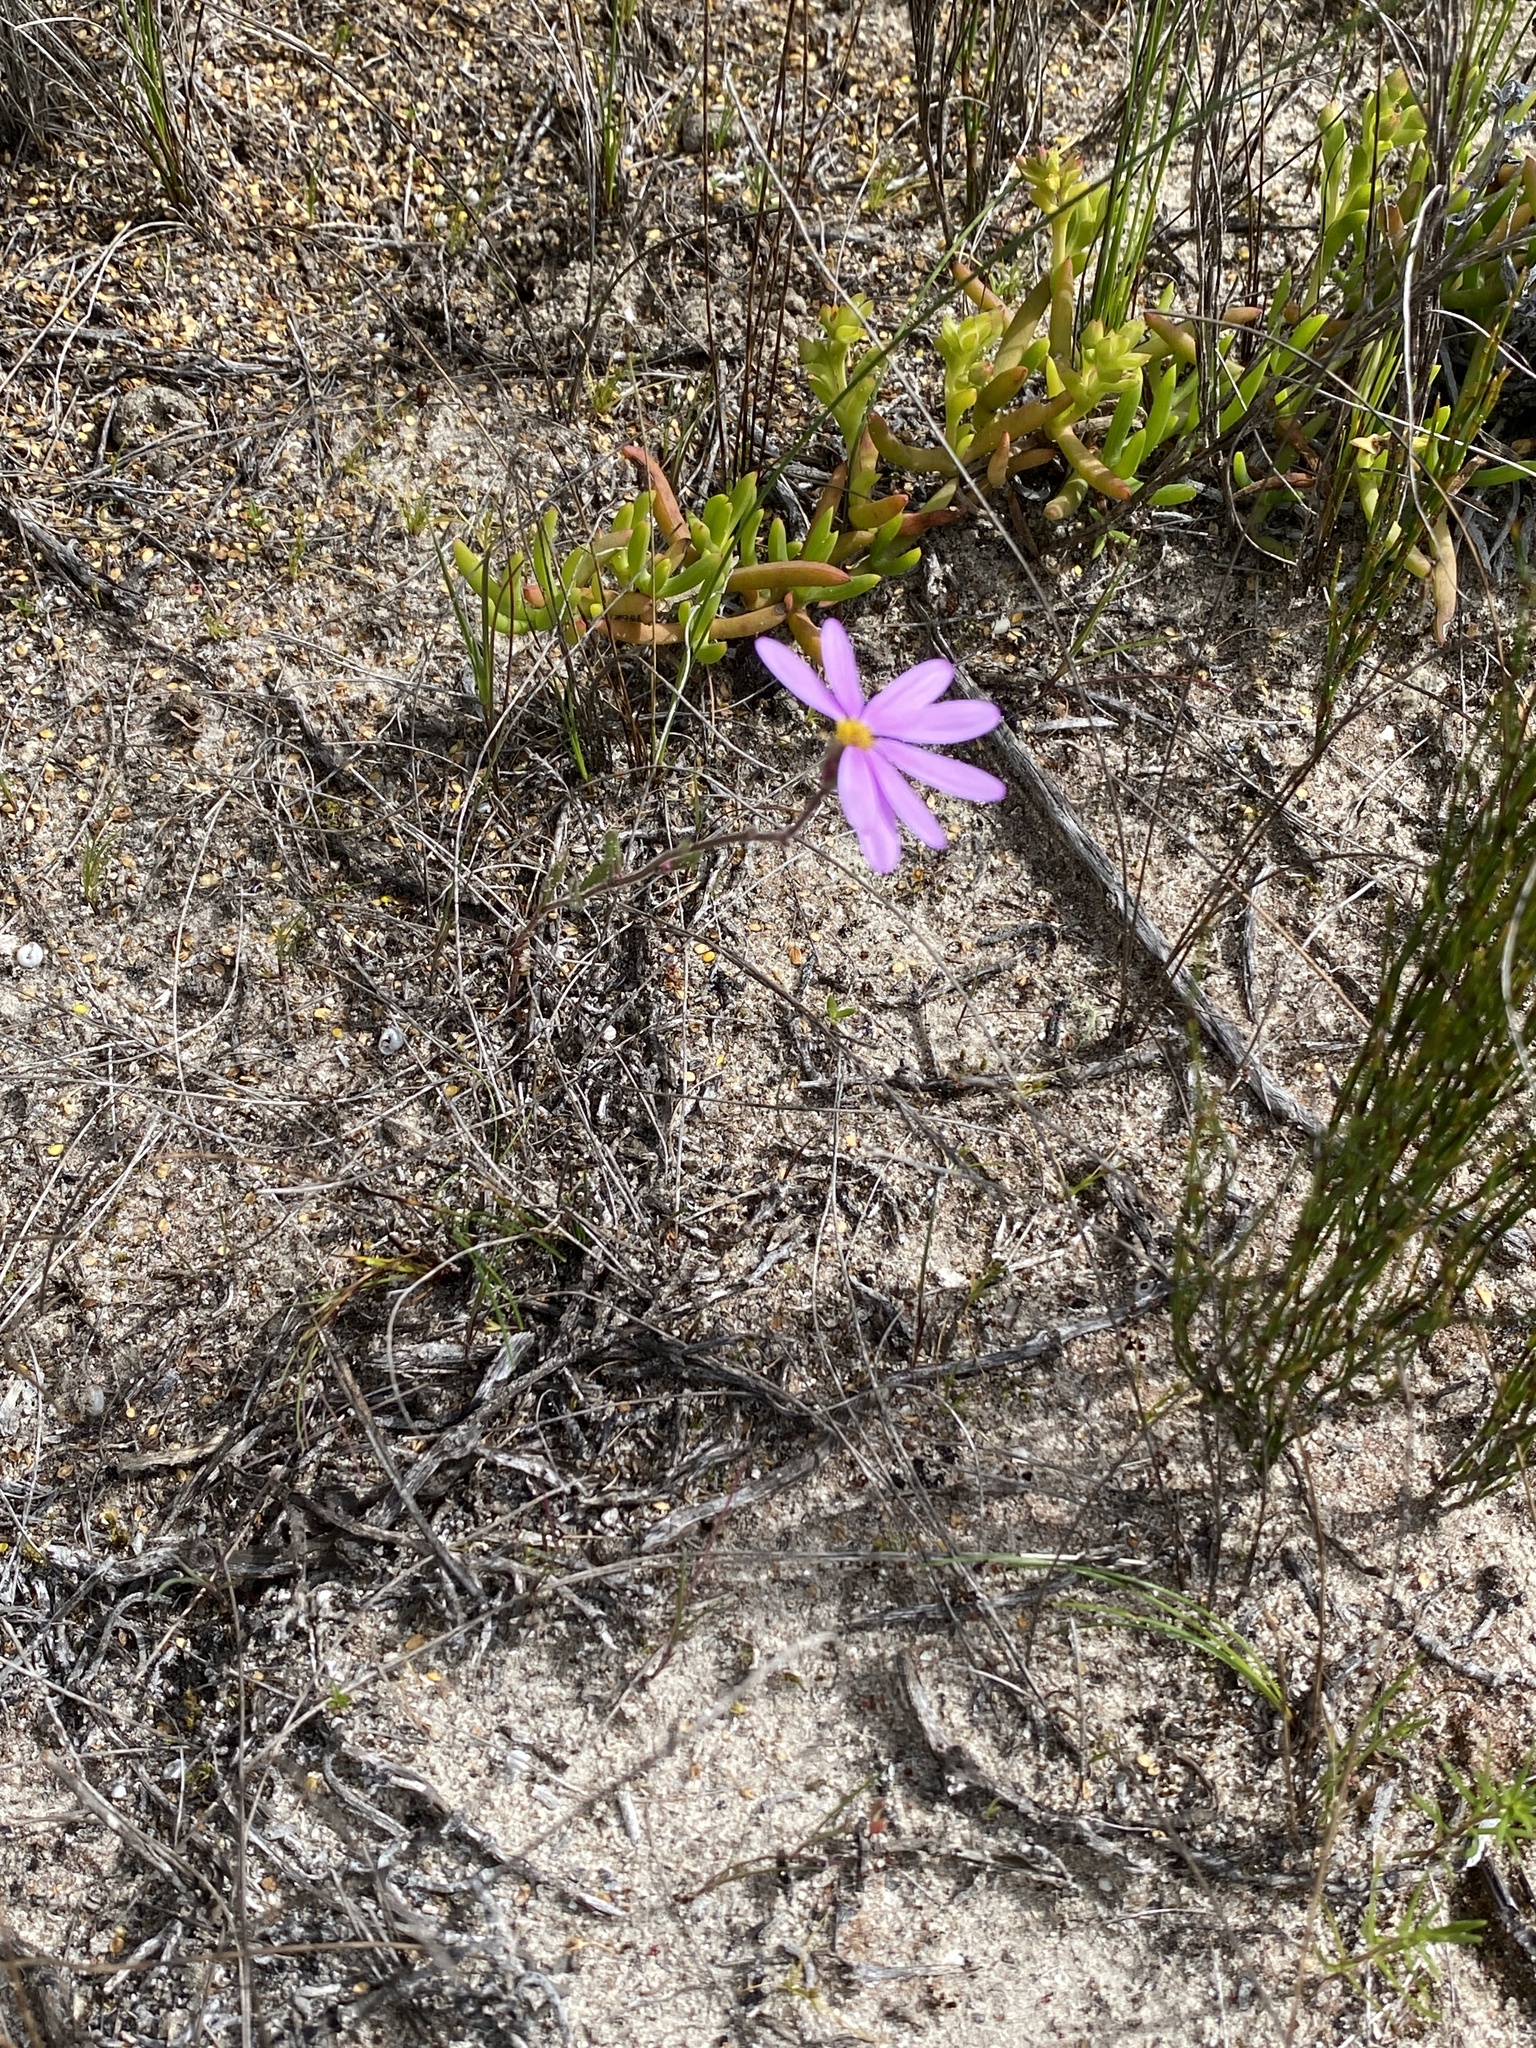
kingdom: Plantae
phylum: Tracheophyta
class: Magnoliopsida
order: Asterales
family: Asteraceae
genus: Senecio
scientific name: Senecio arenarius
